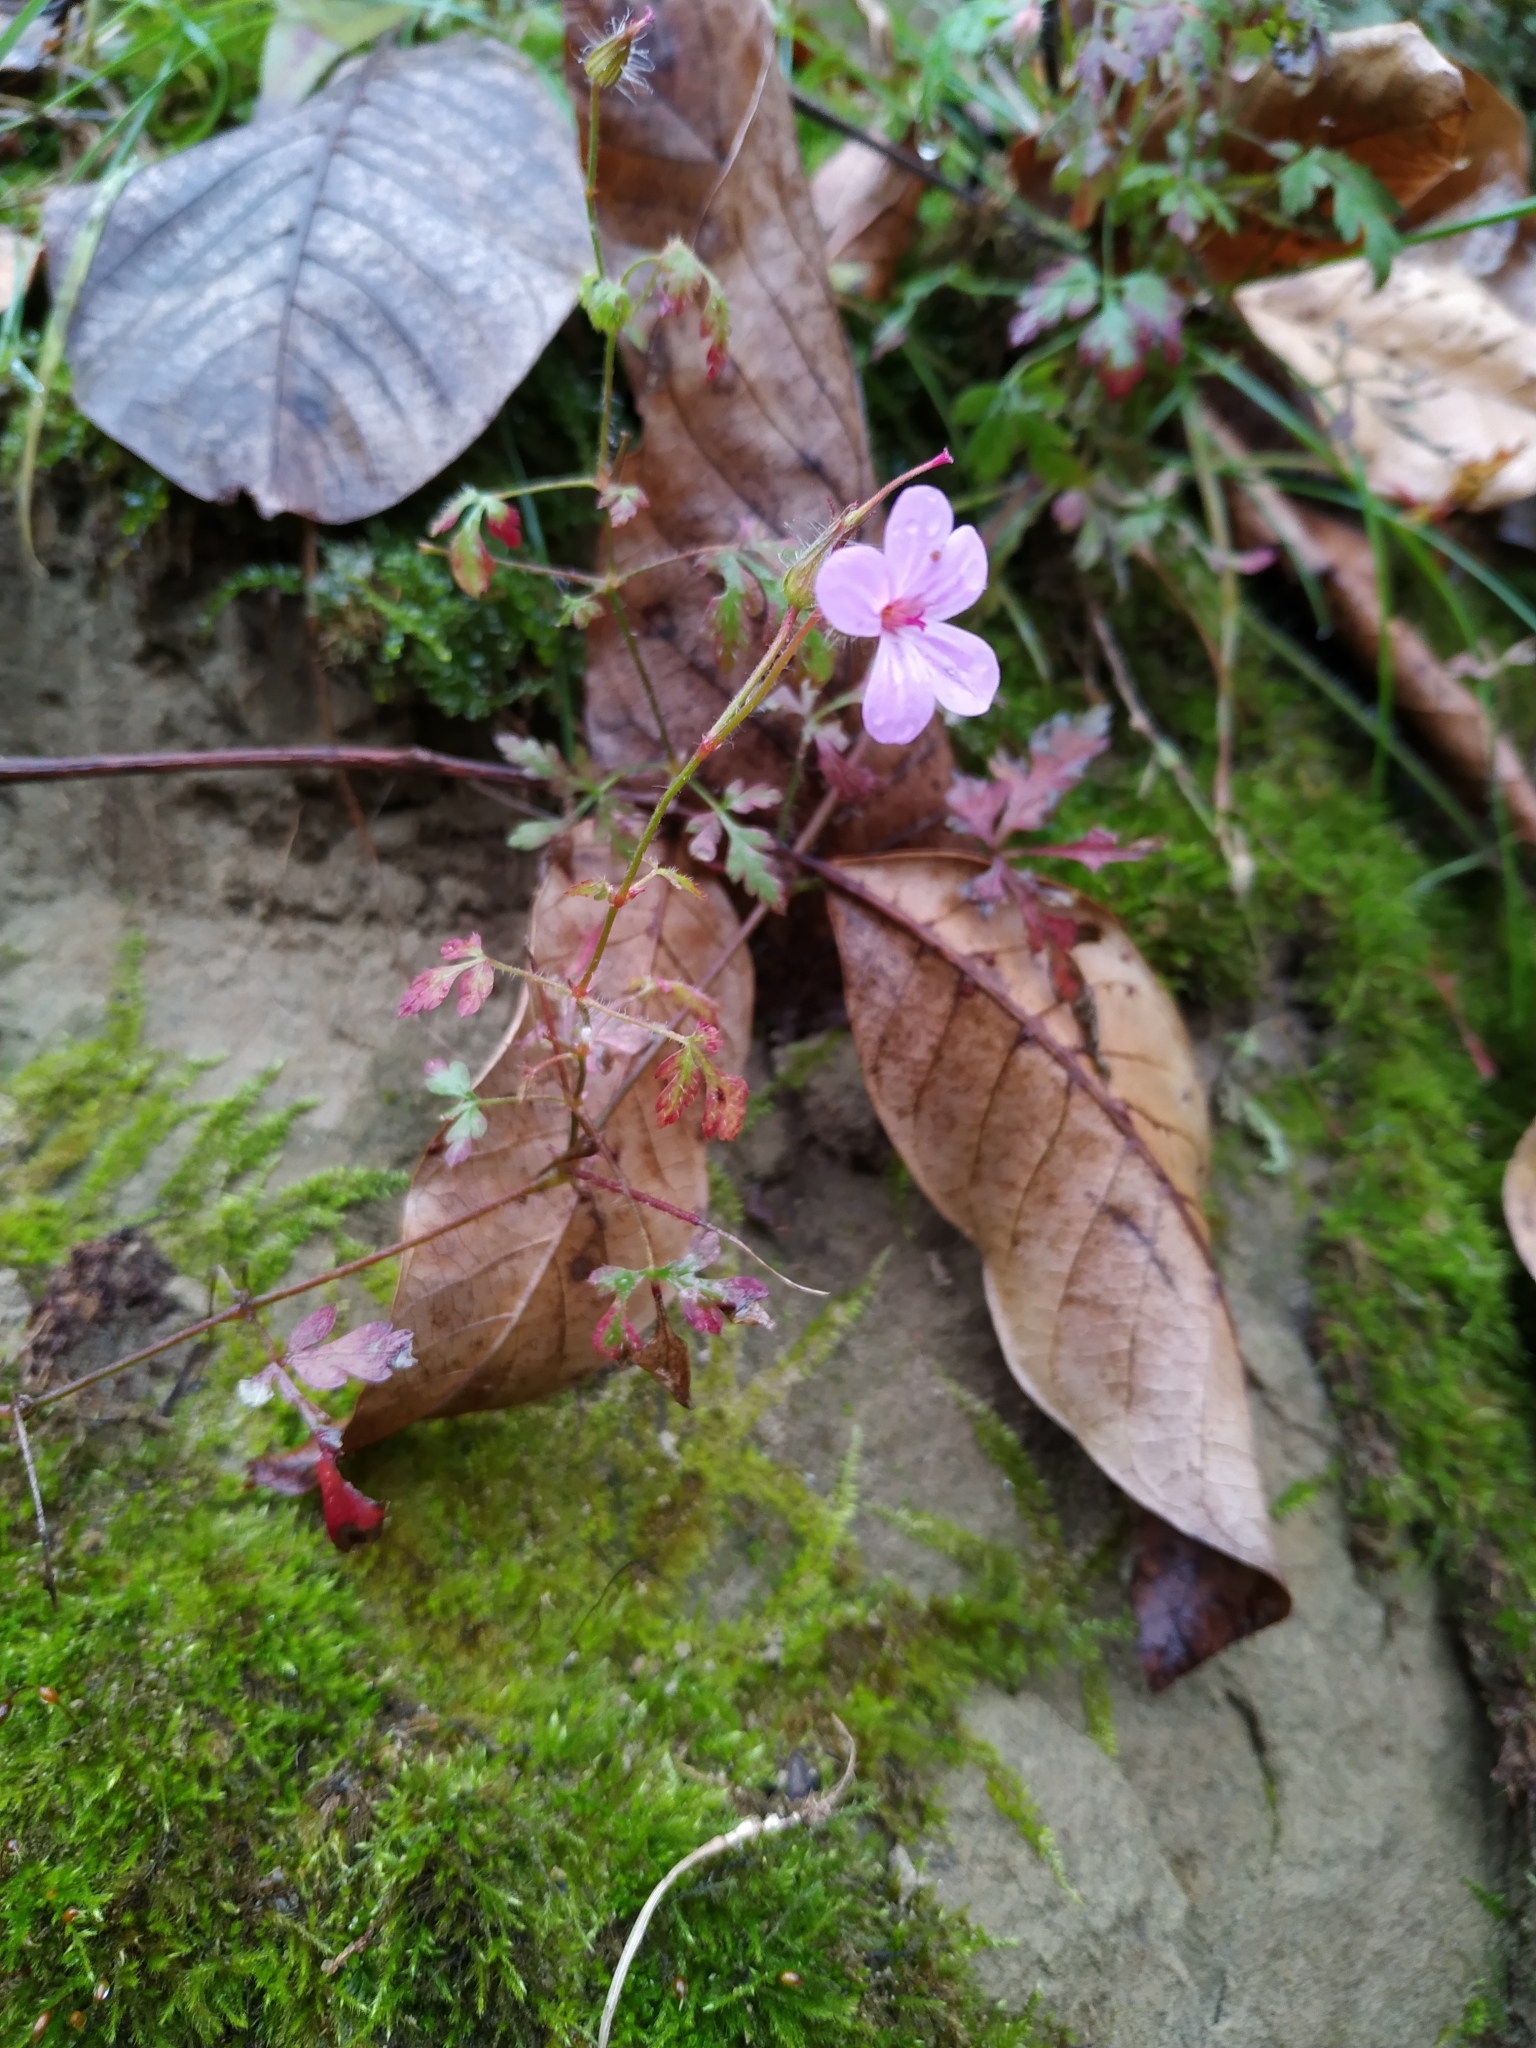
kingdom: Plantae
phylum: Tracheophyta
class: Magnoliopsida
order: Geraniales
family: Geraniaceae
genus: Geranium
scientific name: Geranium robertianum
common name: Herb-robert
